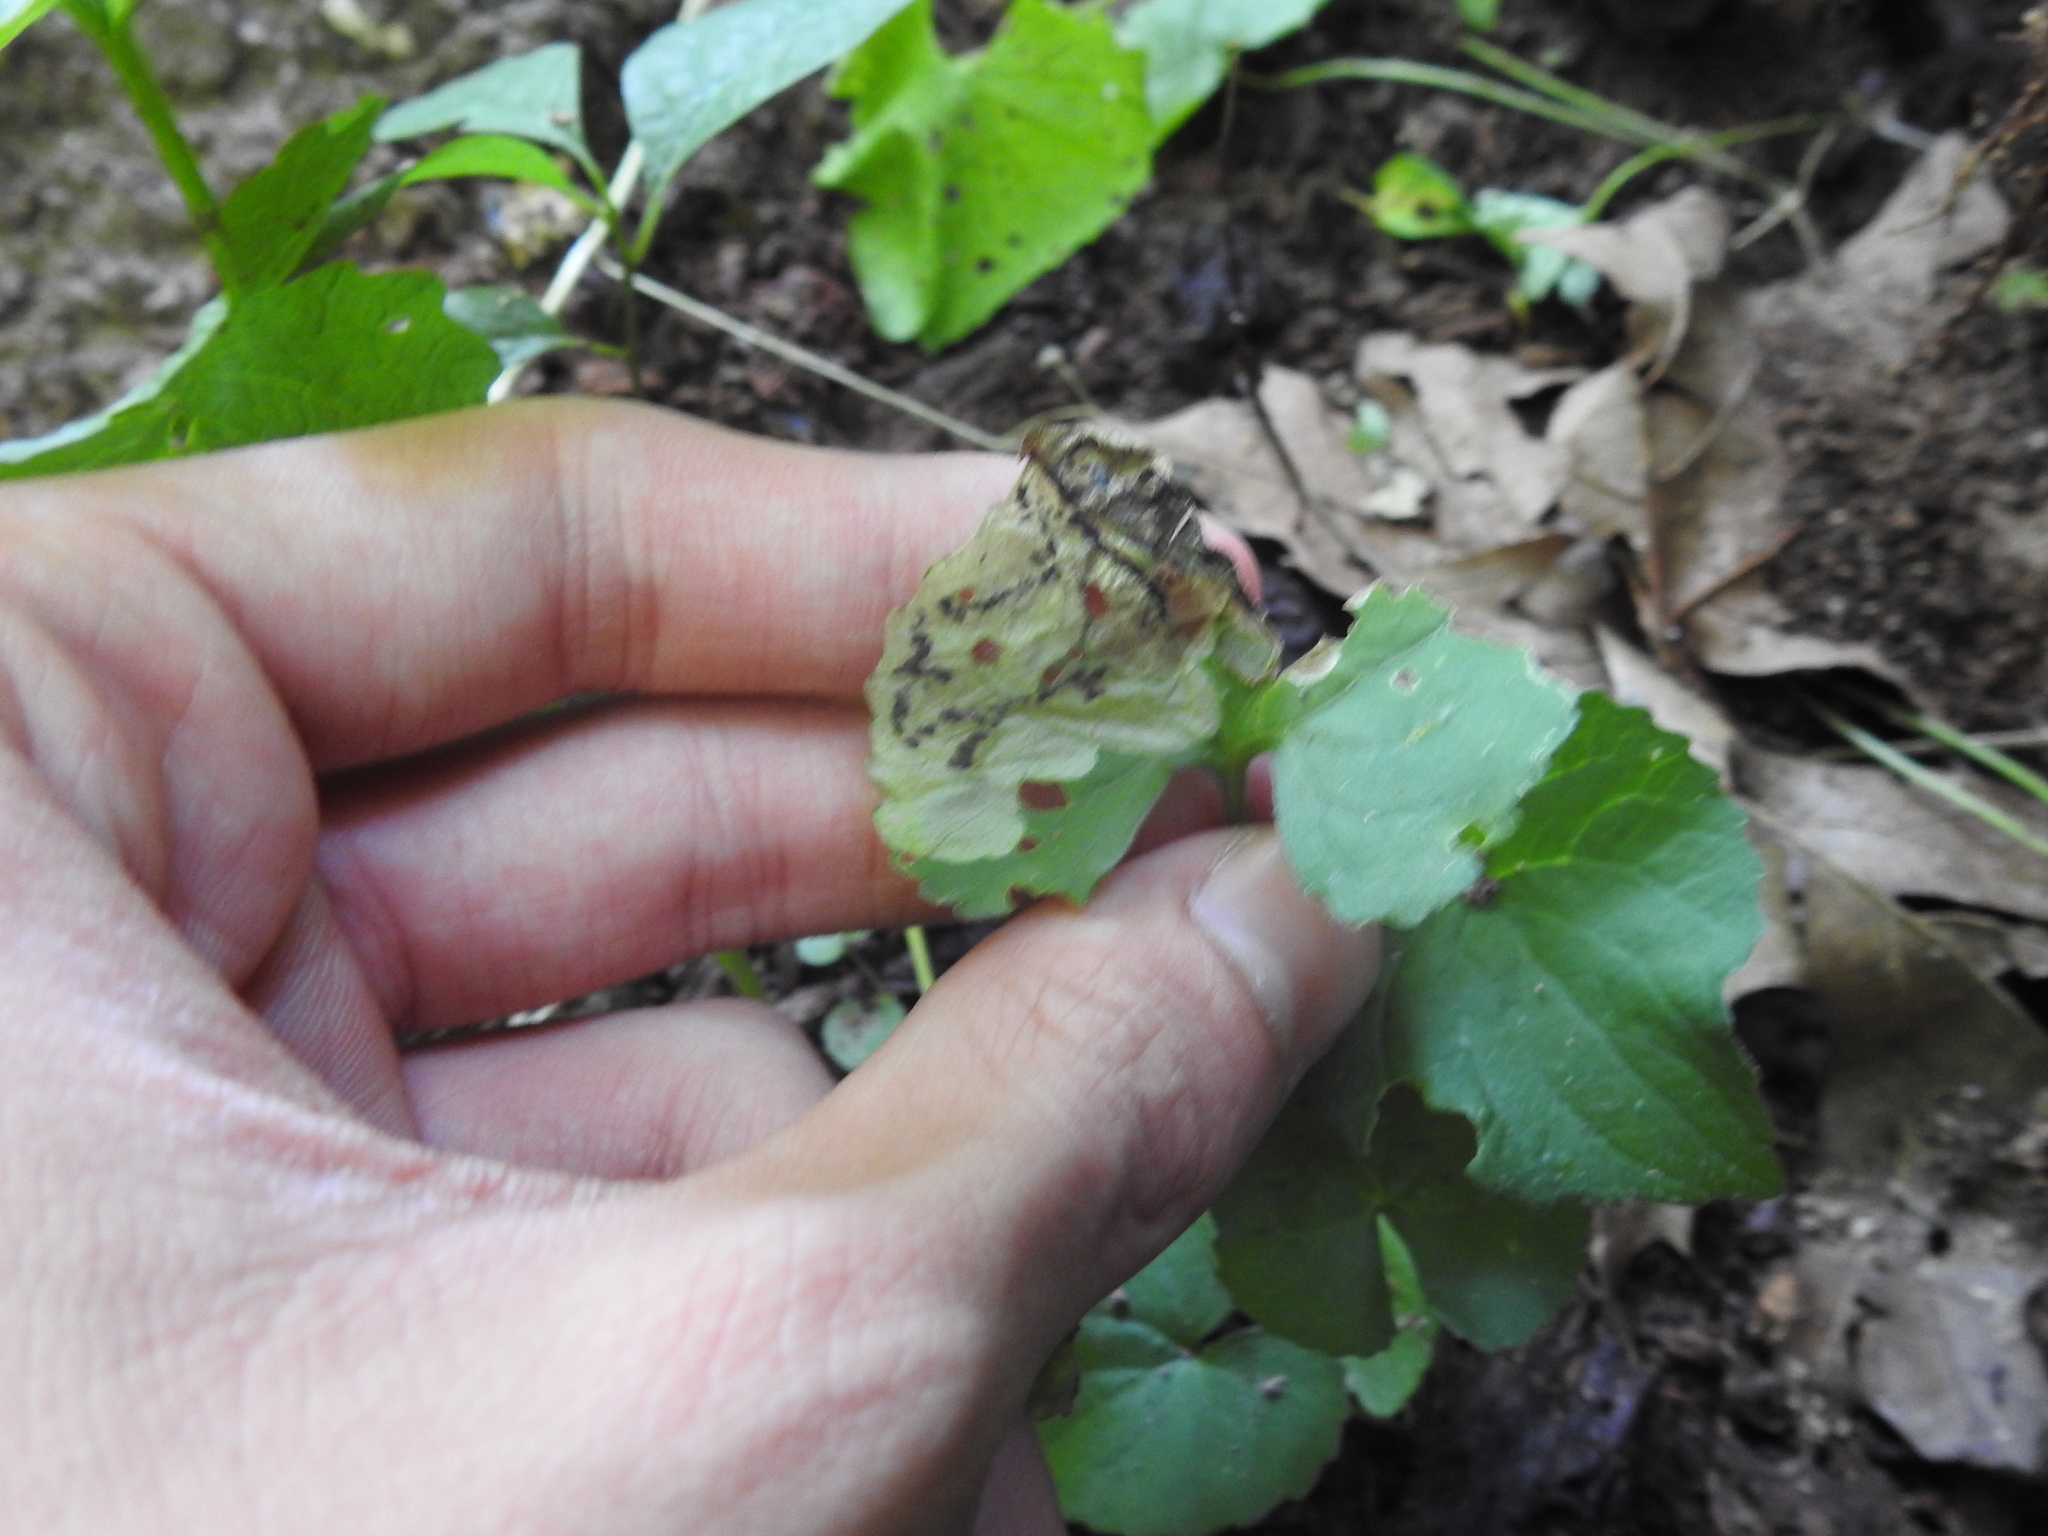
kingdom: Animalia
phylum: Arthropoda
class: Insecta
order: Hymenoptera
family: Tenthredinidae
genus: Nefusa
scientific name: Nefusa ambigua
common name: Violet leafmining sawfly
